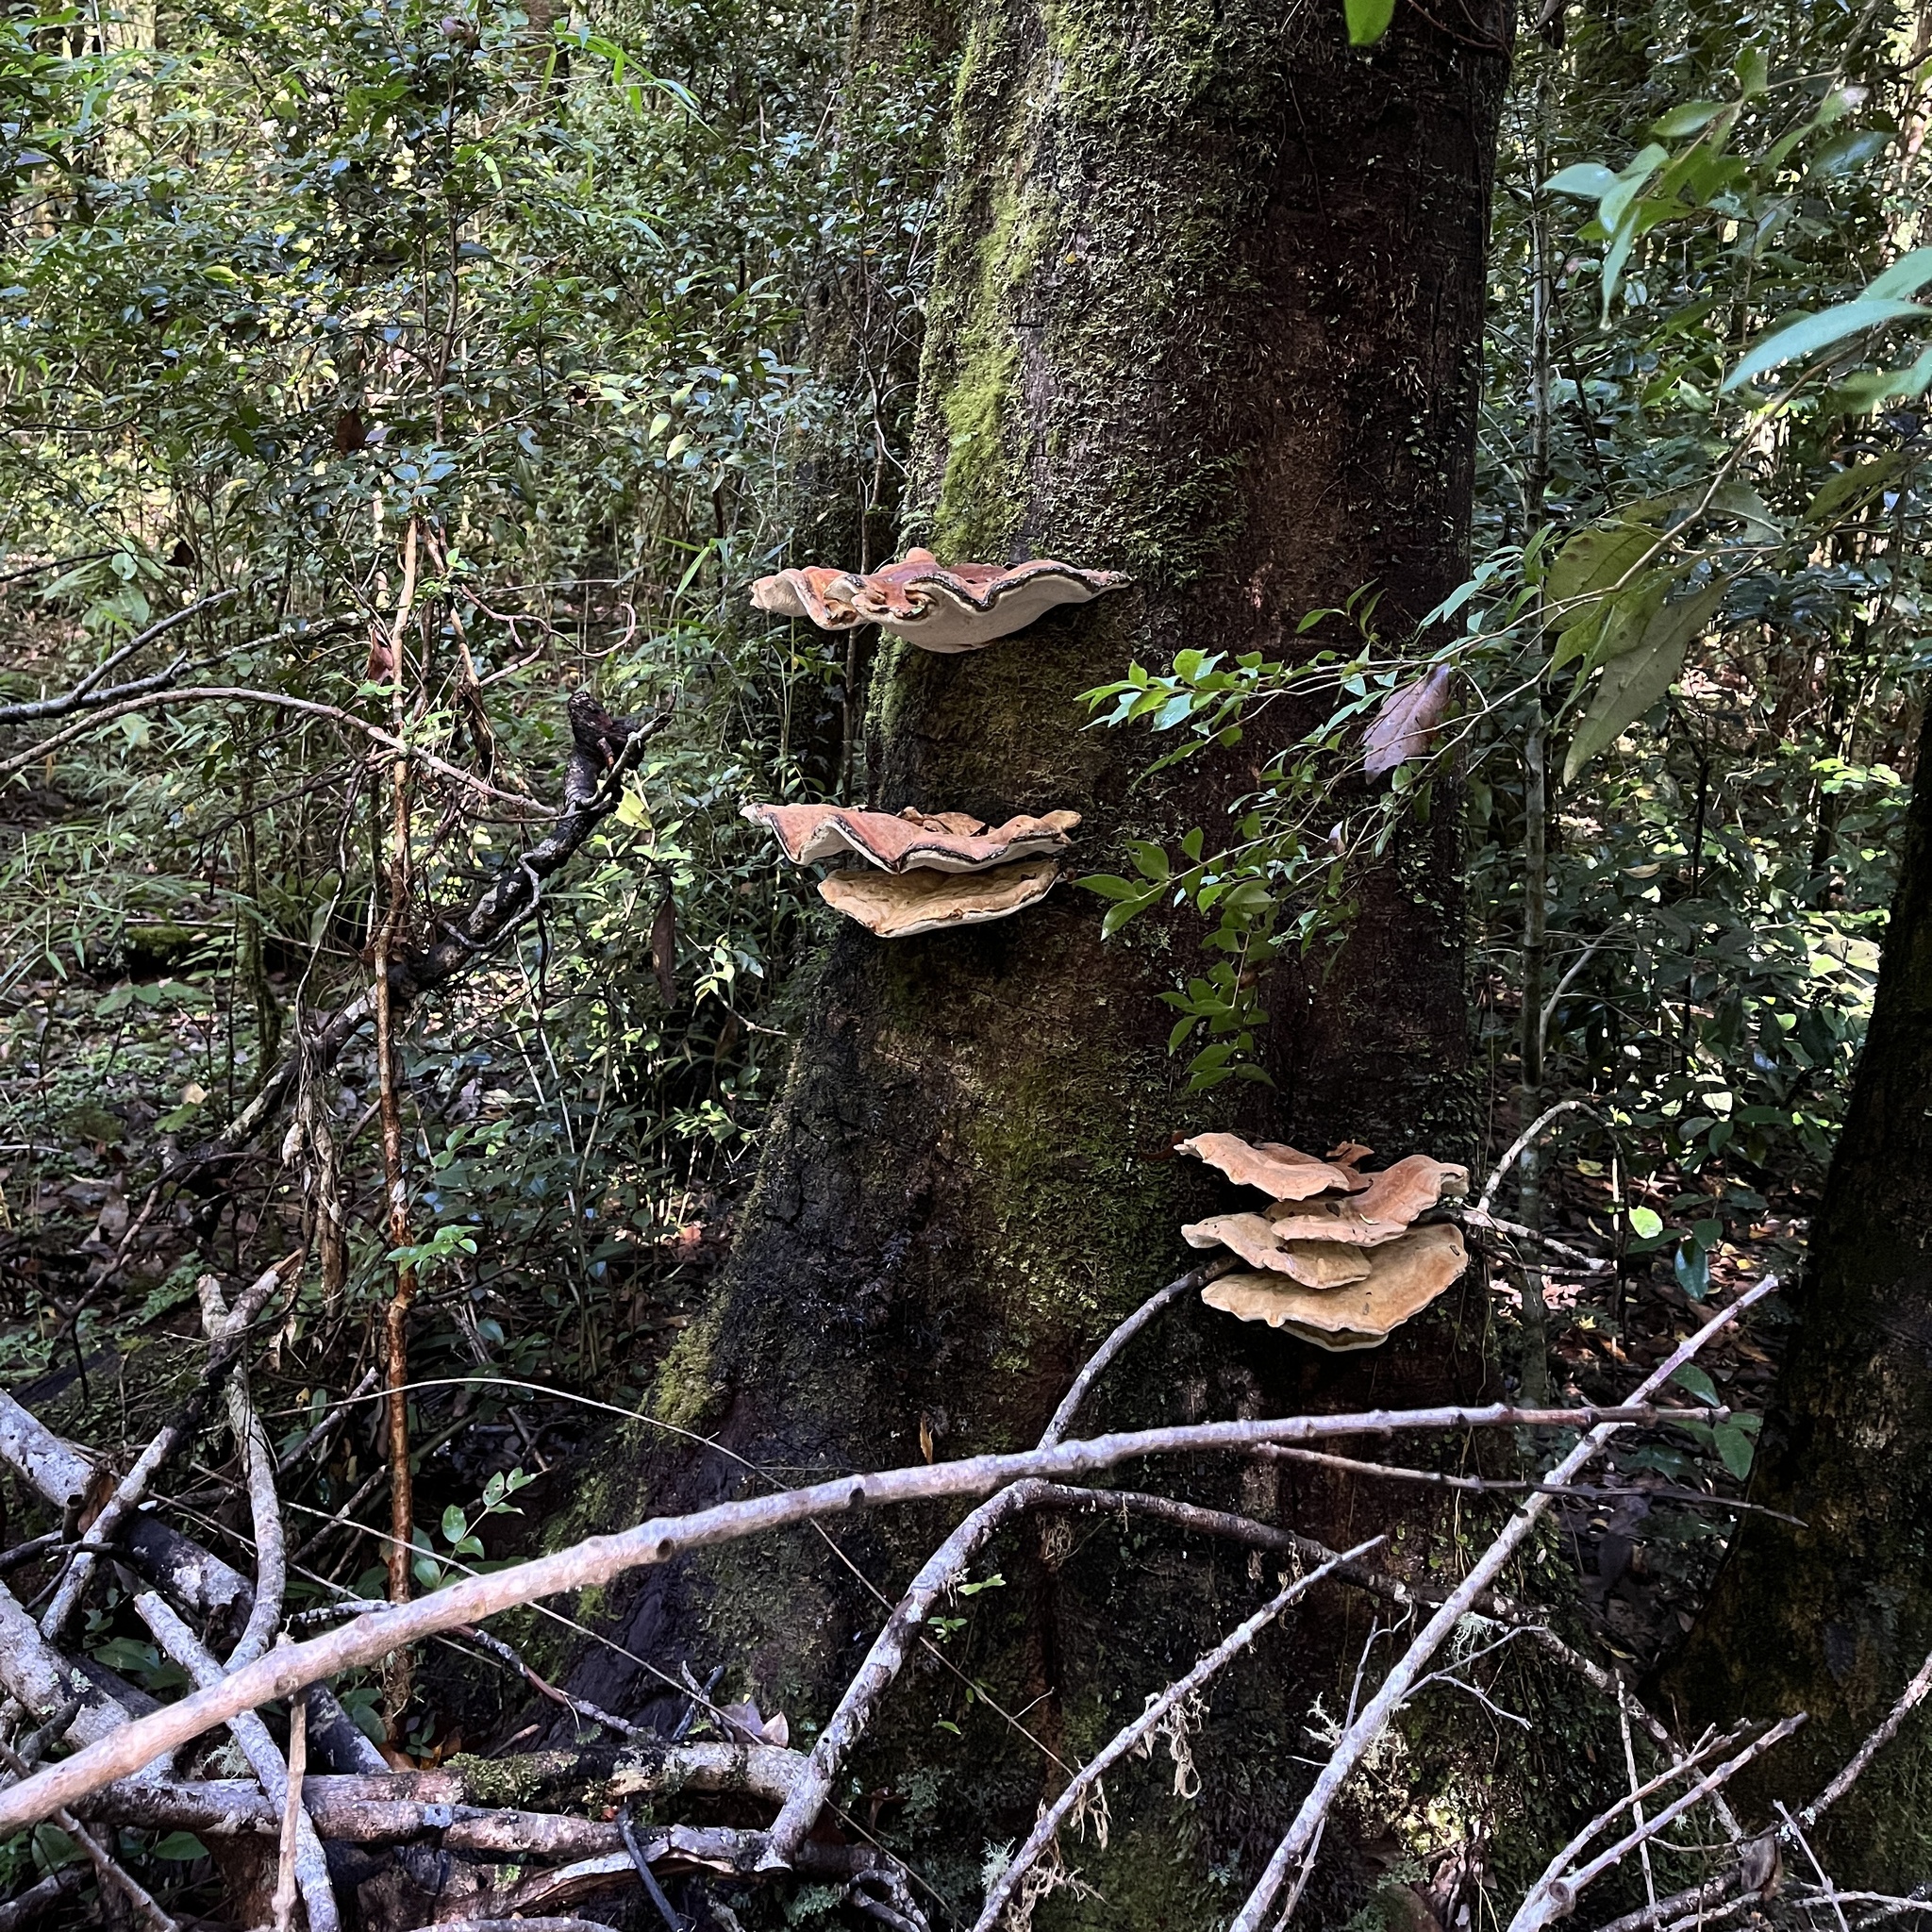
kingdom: Fungi
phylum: Basidiomycota
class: Agaricomycetes
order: Russulales
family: Bondarzewiaceae
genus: Bondarzewia
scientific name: Bondarzewia guaitecasensis
